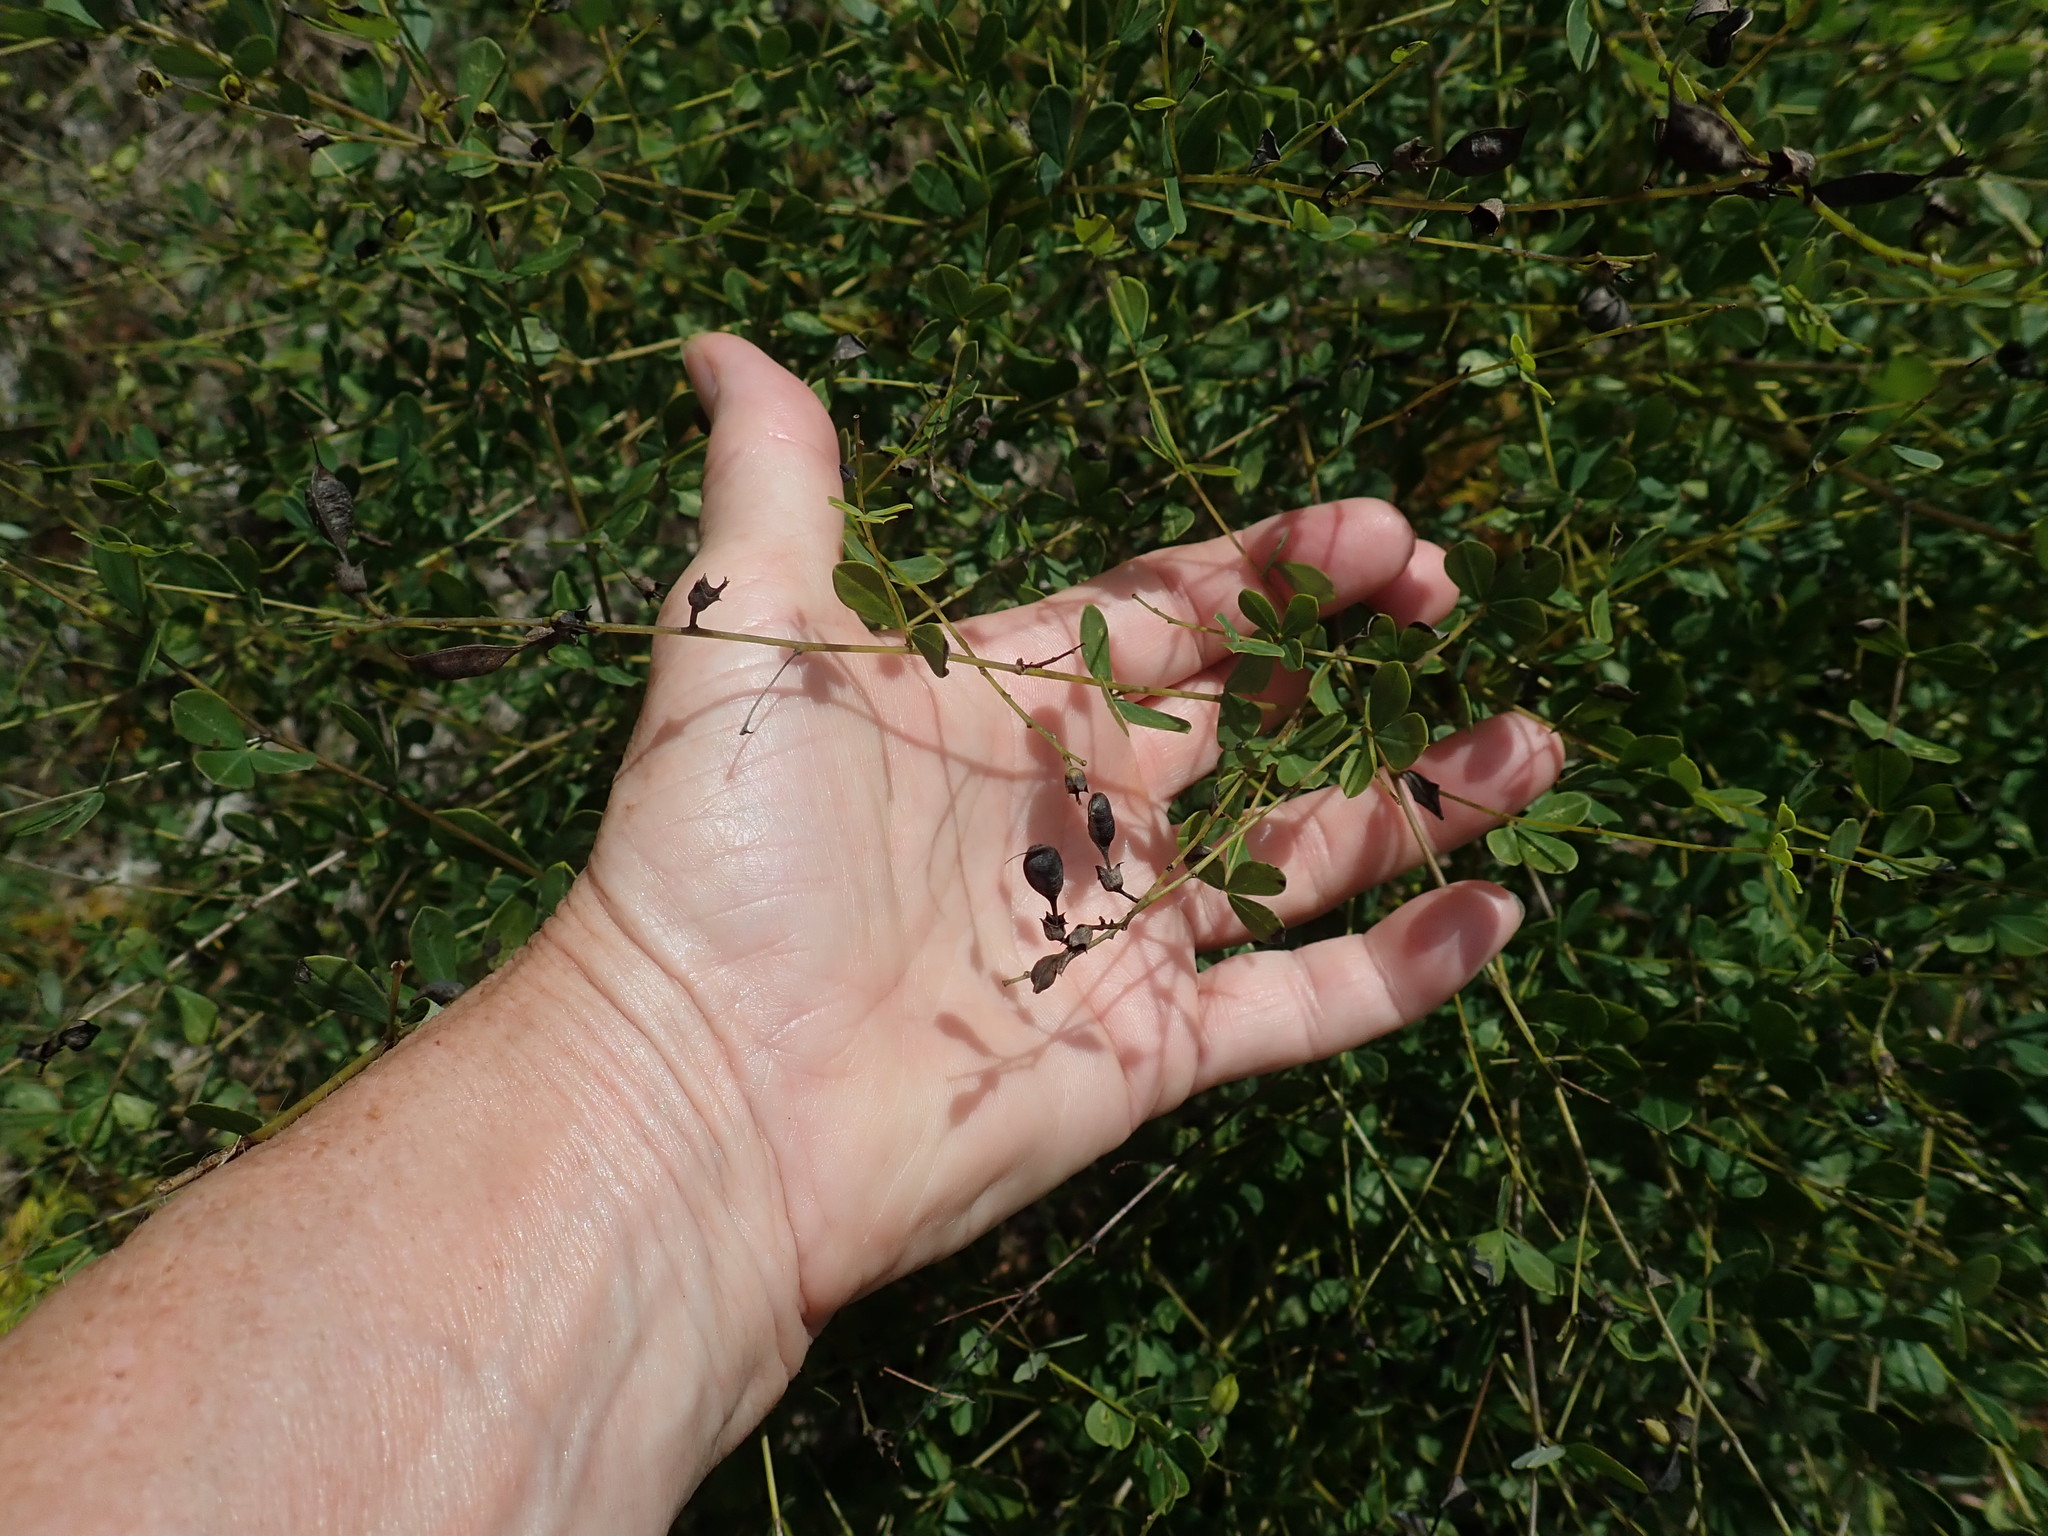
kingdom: Plantae
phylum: Tracheophyta
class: Magnoliopsida
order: Fabales
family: Fabaceae
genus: Baptisia
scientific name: Baptisia tinctoria
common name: Wild indigo
